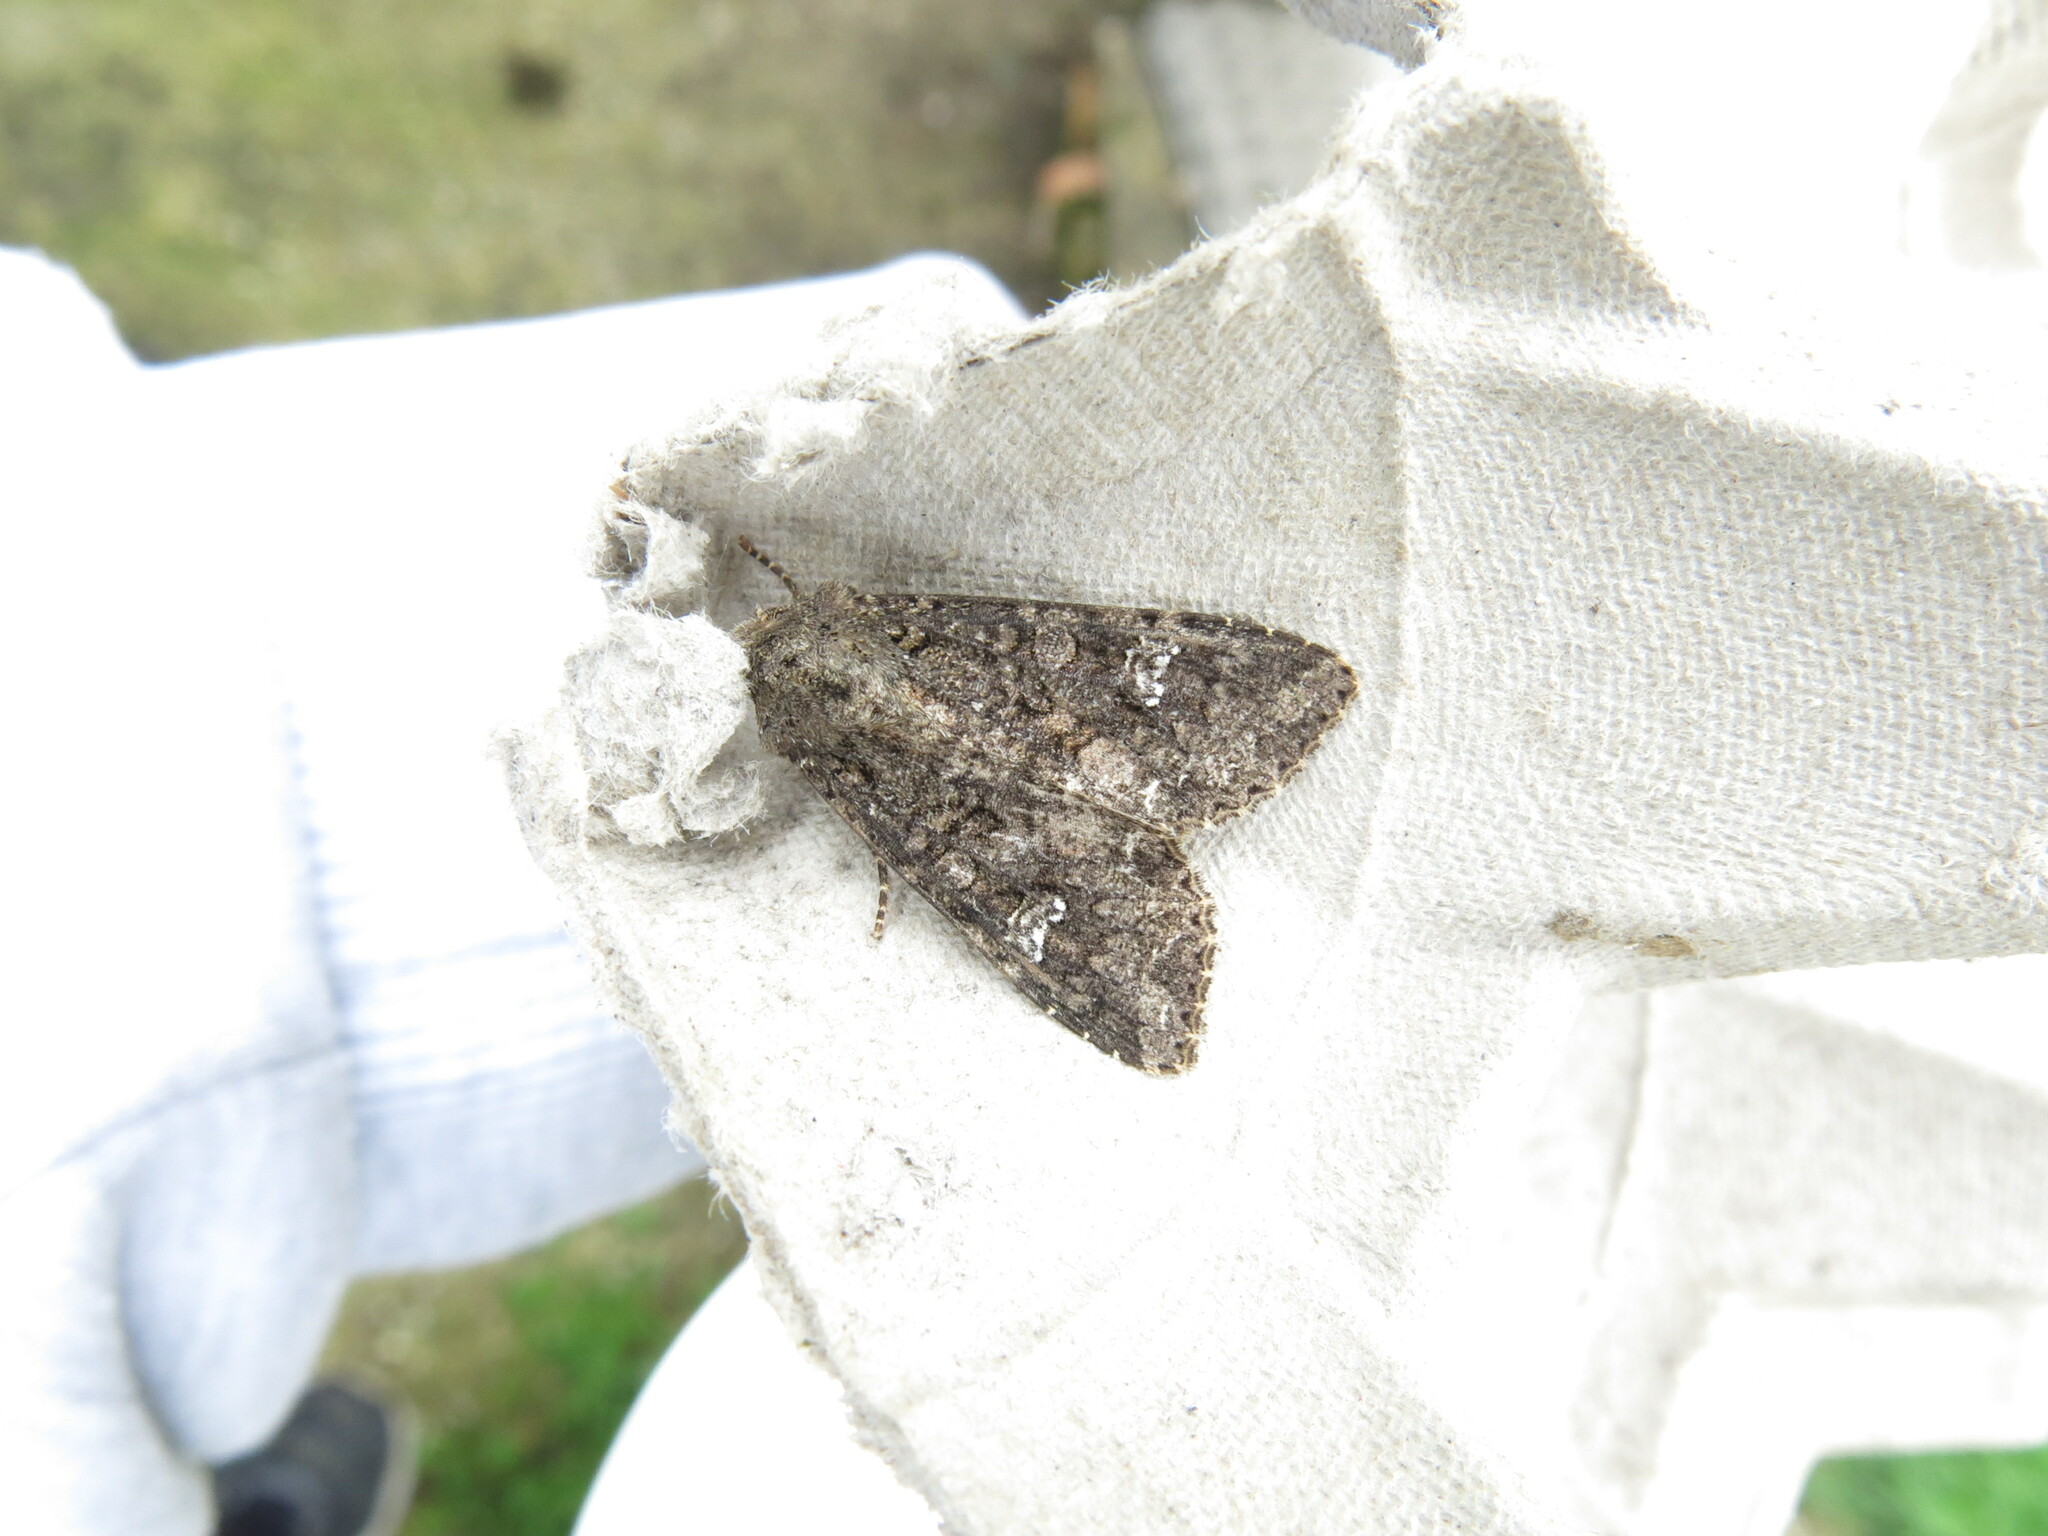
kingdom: Animalia
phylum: Arthropoda
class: Insecta
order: Lepidoptera
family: Noctuidae
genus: Mamestra
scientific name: Mamestra brassicae
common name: Cabbage moth
